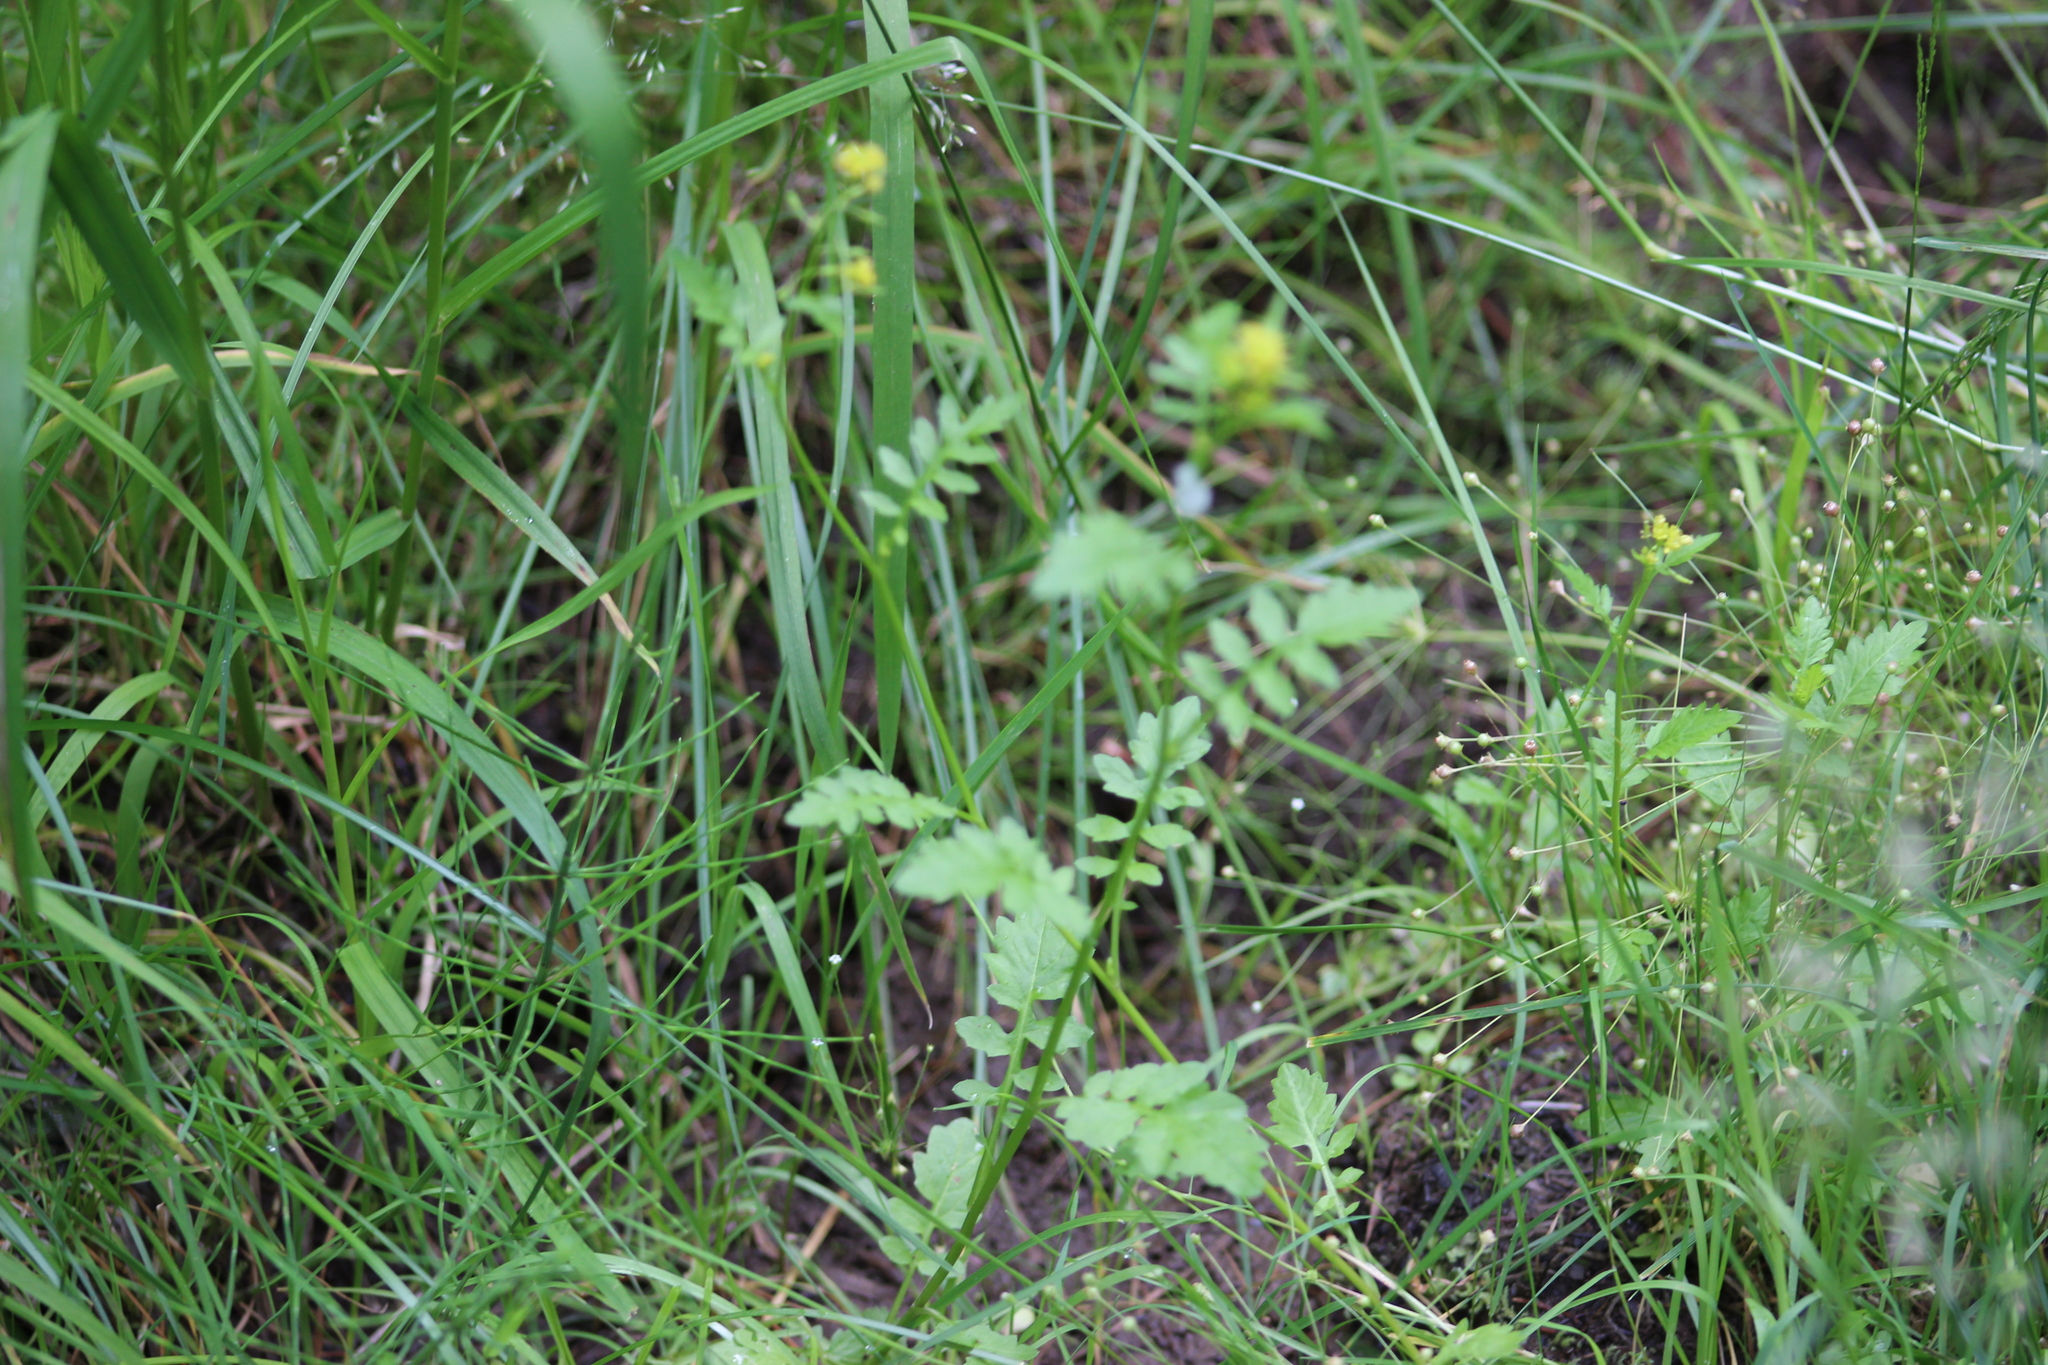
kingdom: Plantae
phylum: Tracheophyta
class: Magnoliopsida
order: Brassicales
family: Brassicaceae
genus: Rorippa
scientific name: Rorippa palustris
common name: Marsh yellow-cress
